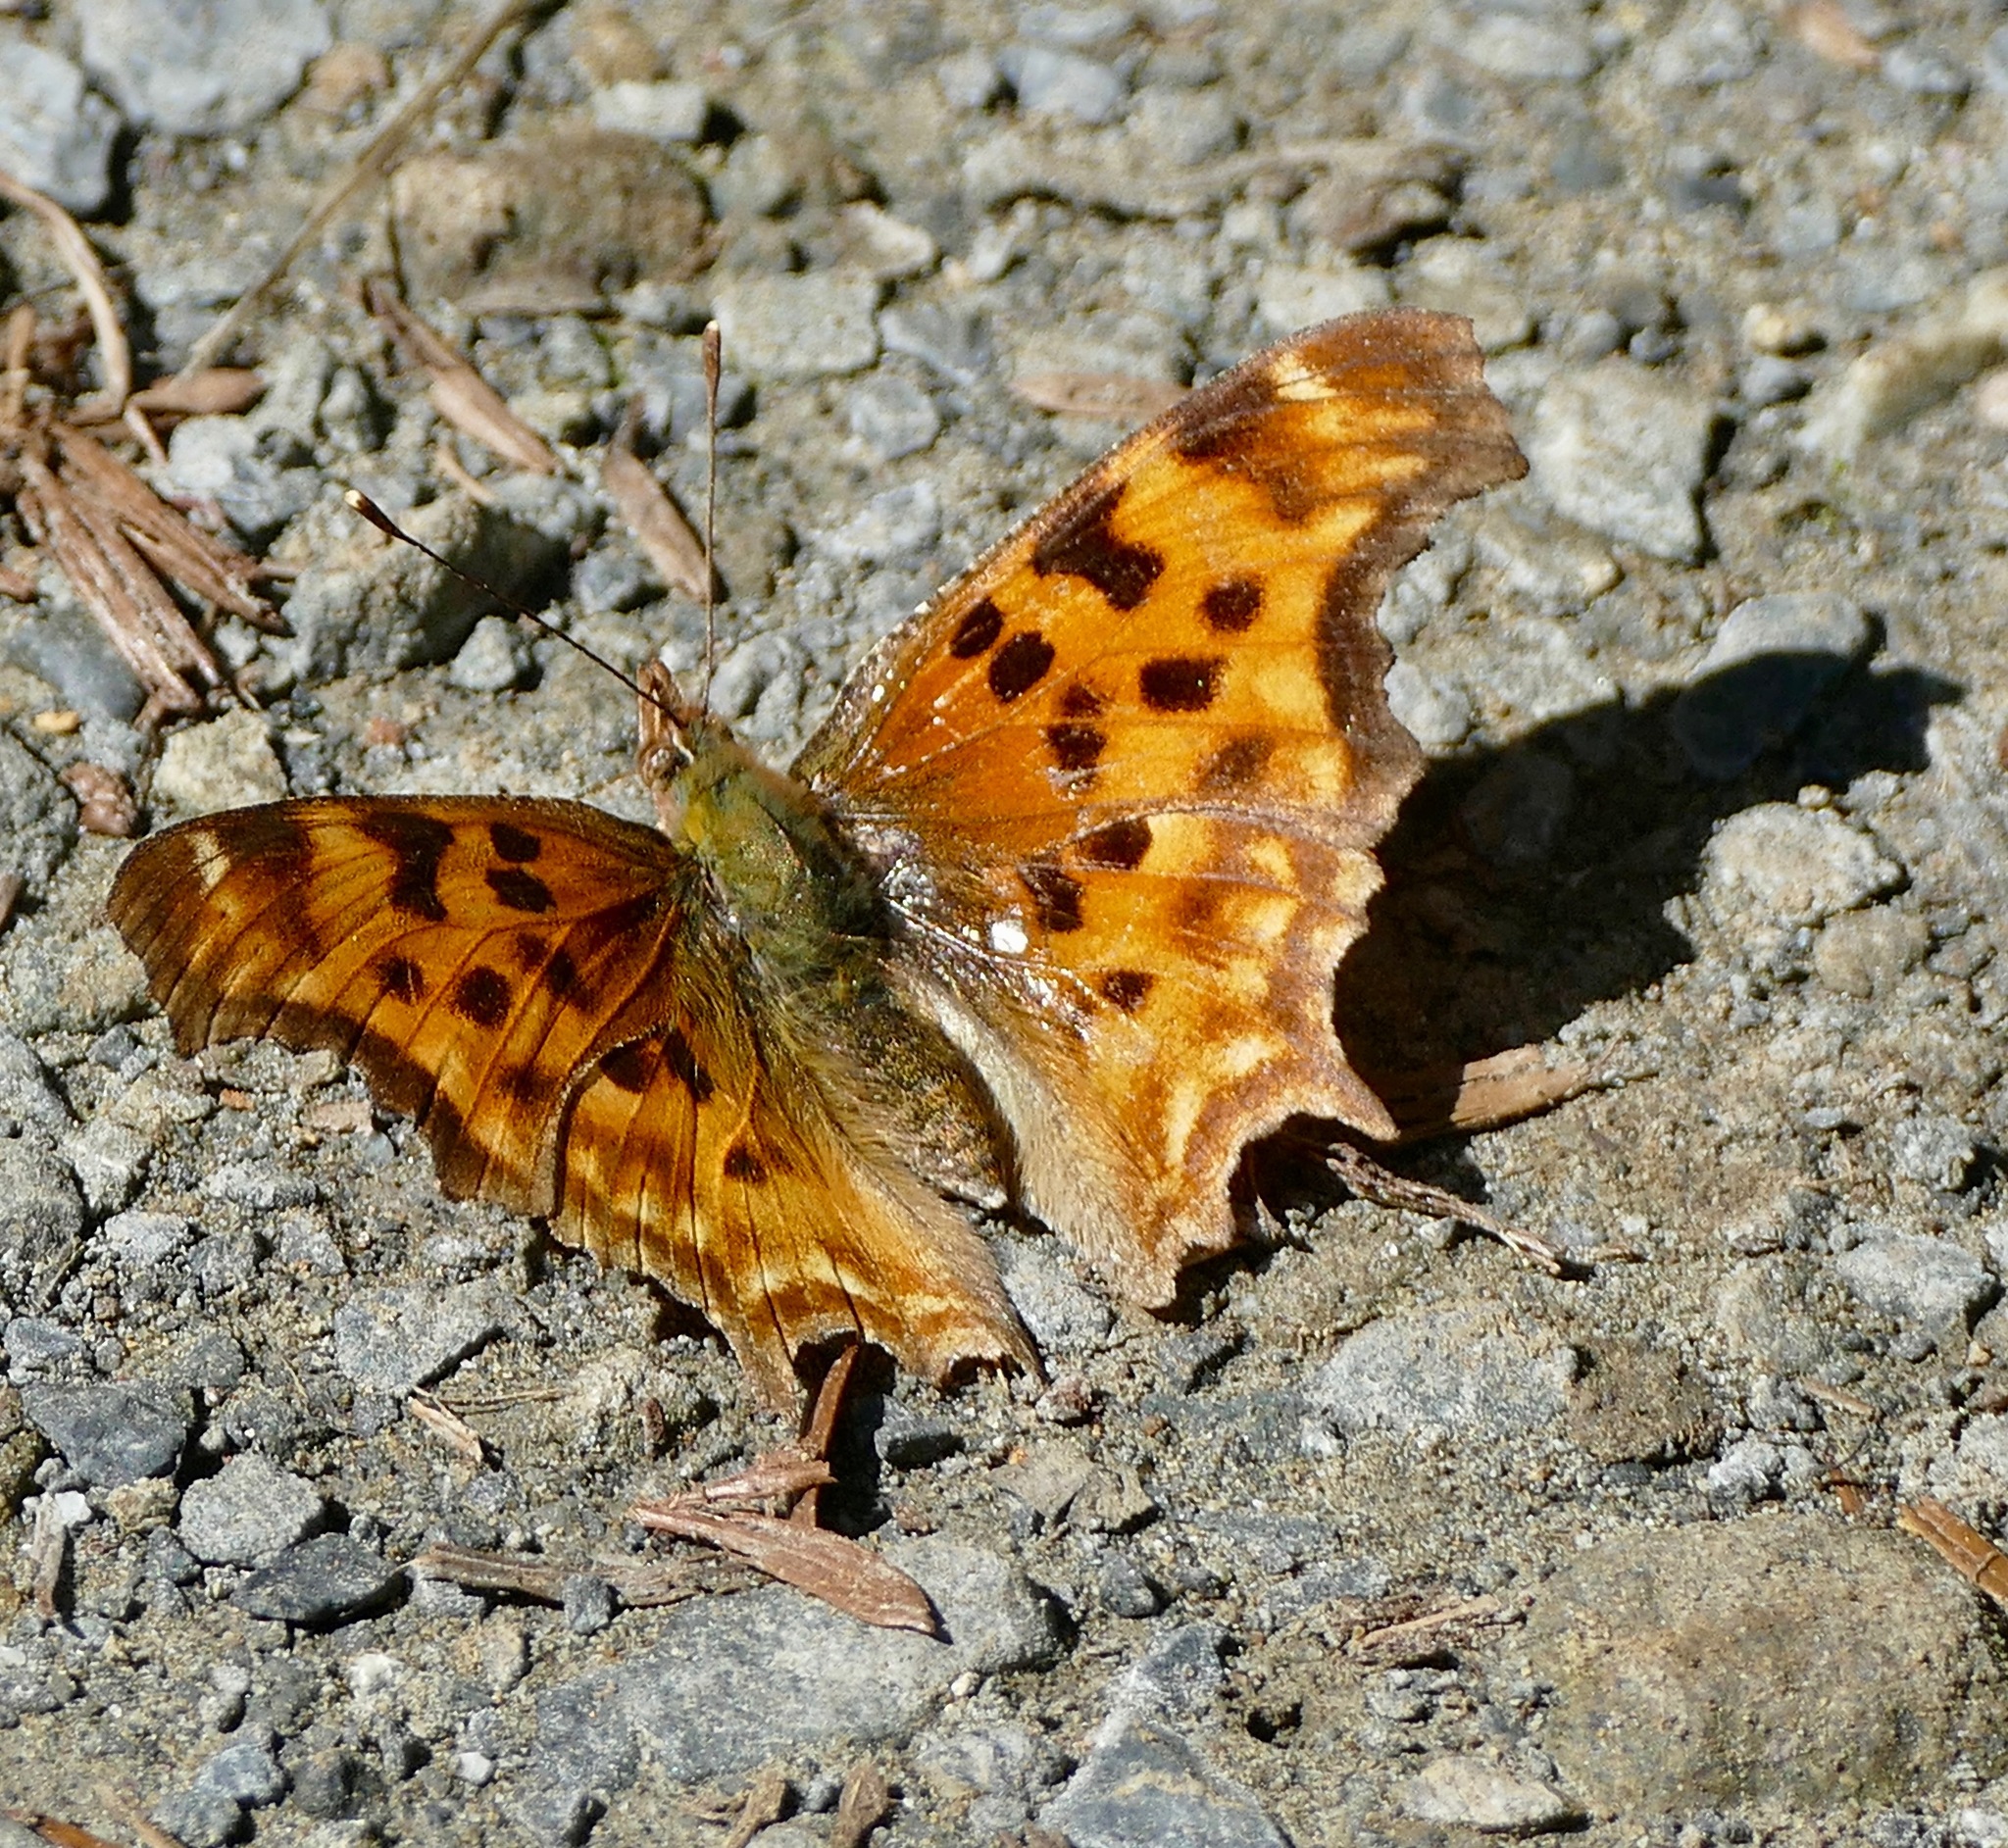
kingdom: Animalia
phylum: Arthropoda
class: Insecta
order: Lepidoptera
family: Nymphalidae
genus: Polygonia
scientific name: Polygonia satyrus
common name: Satyr angle wing
